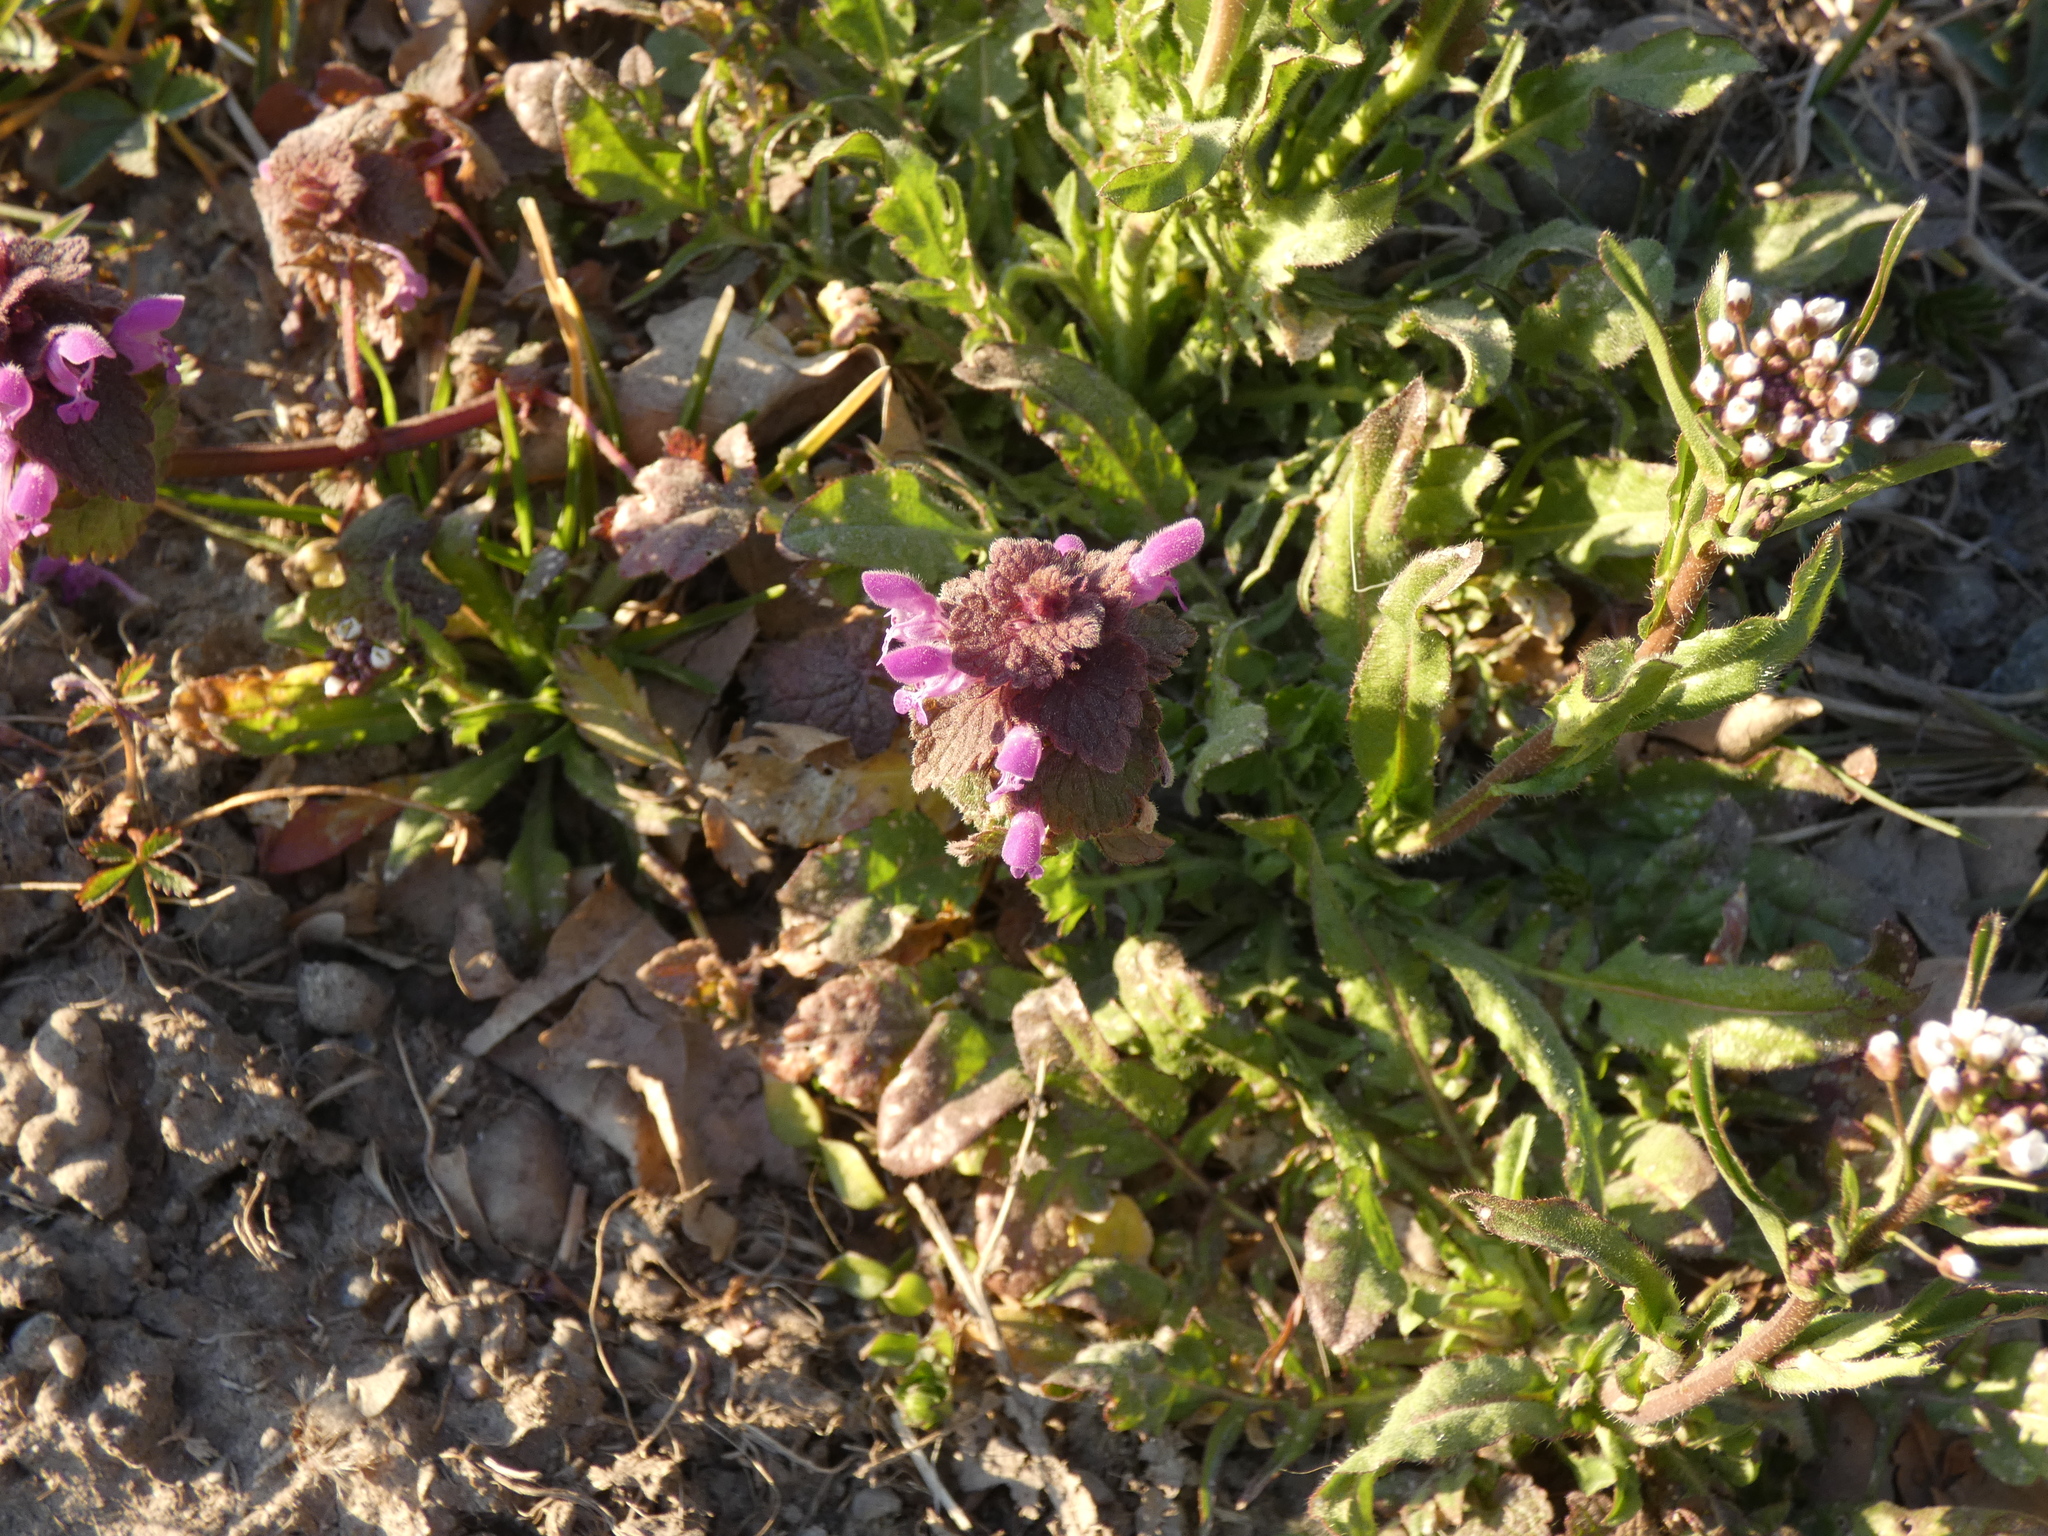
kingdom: Plantae
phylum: Tracheophyta
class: Magnoliopsida
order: Lamiales
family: Lamiaceae
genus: Lamium
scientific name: Lamium purpureum
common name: Red dead-nettle
